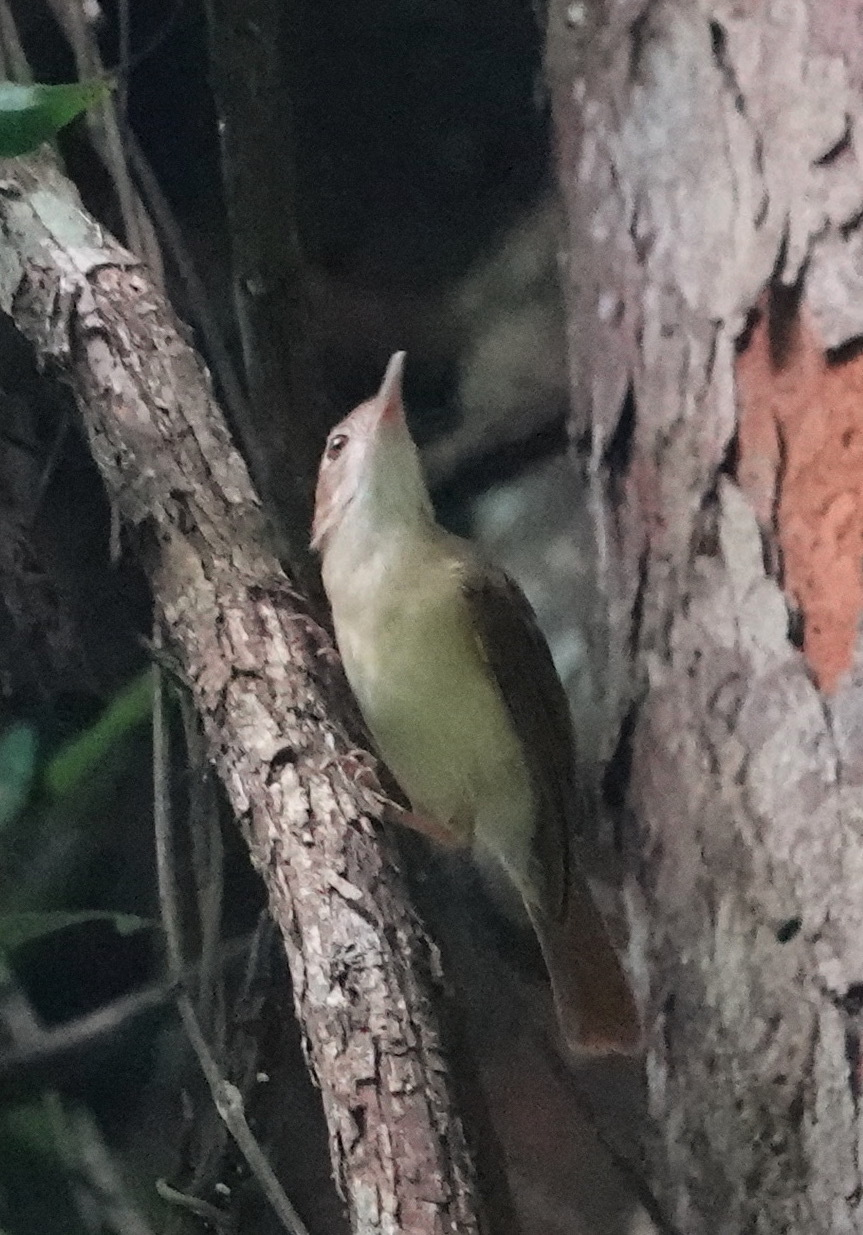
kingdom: Animalia
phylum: Chordata
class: Aves
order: Passeriformes
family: Pellorneidae
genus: Trichastoma
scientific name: Trichastoma bicolor
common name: Ferruginous babbler
